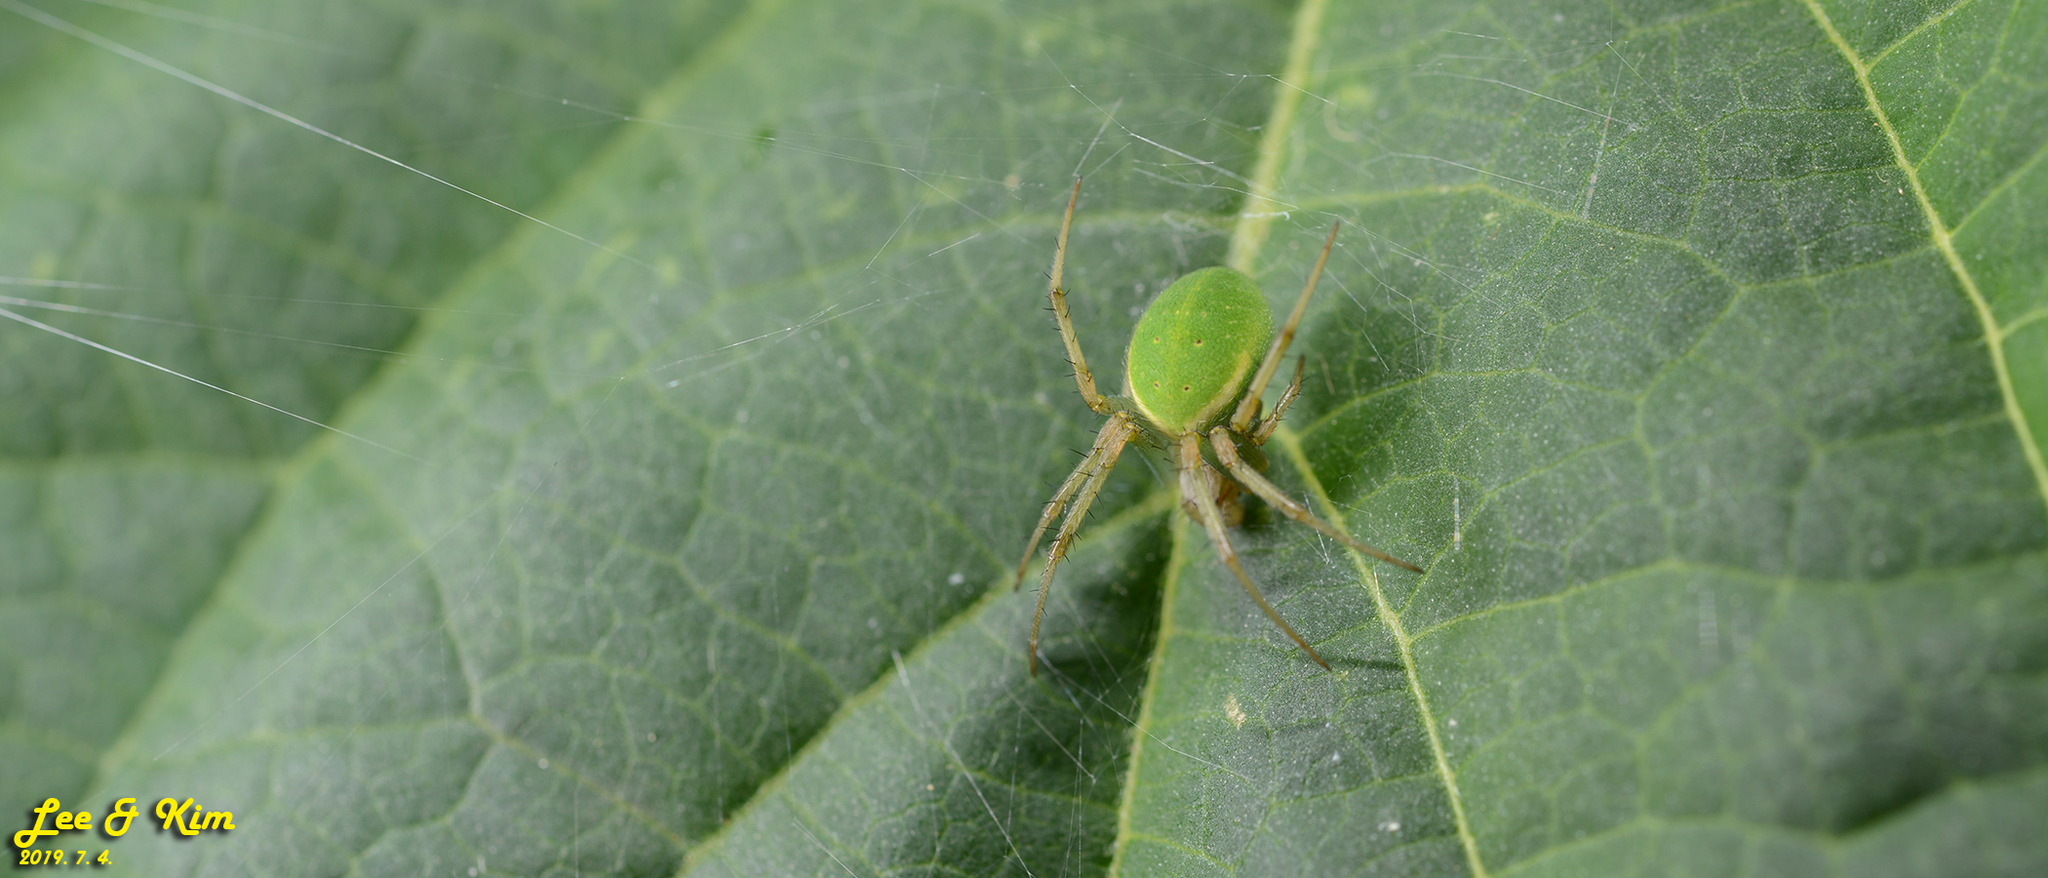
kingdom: Animalia
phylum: Arthropoda
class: Arachnida
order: Araneae
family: Araneidae
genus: Neoscona
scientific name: Neoscona scylloides
